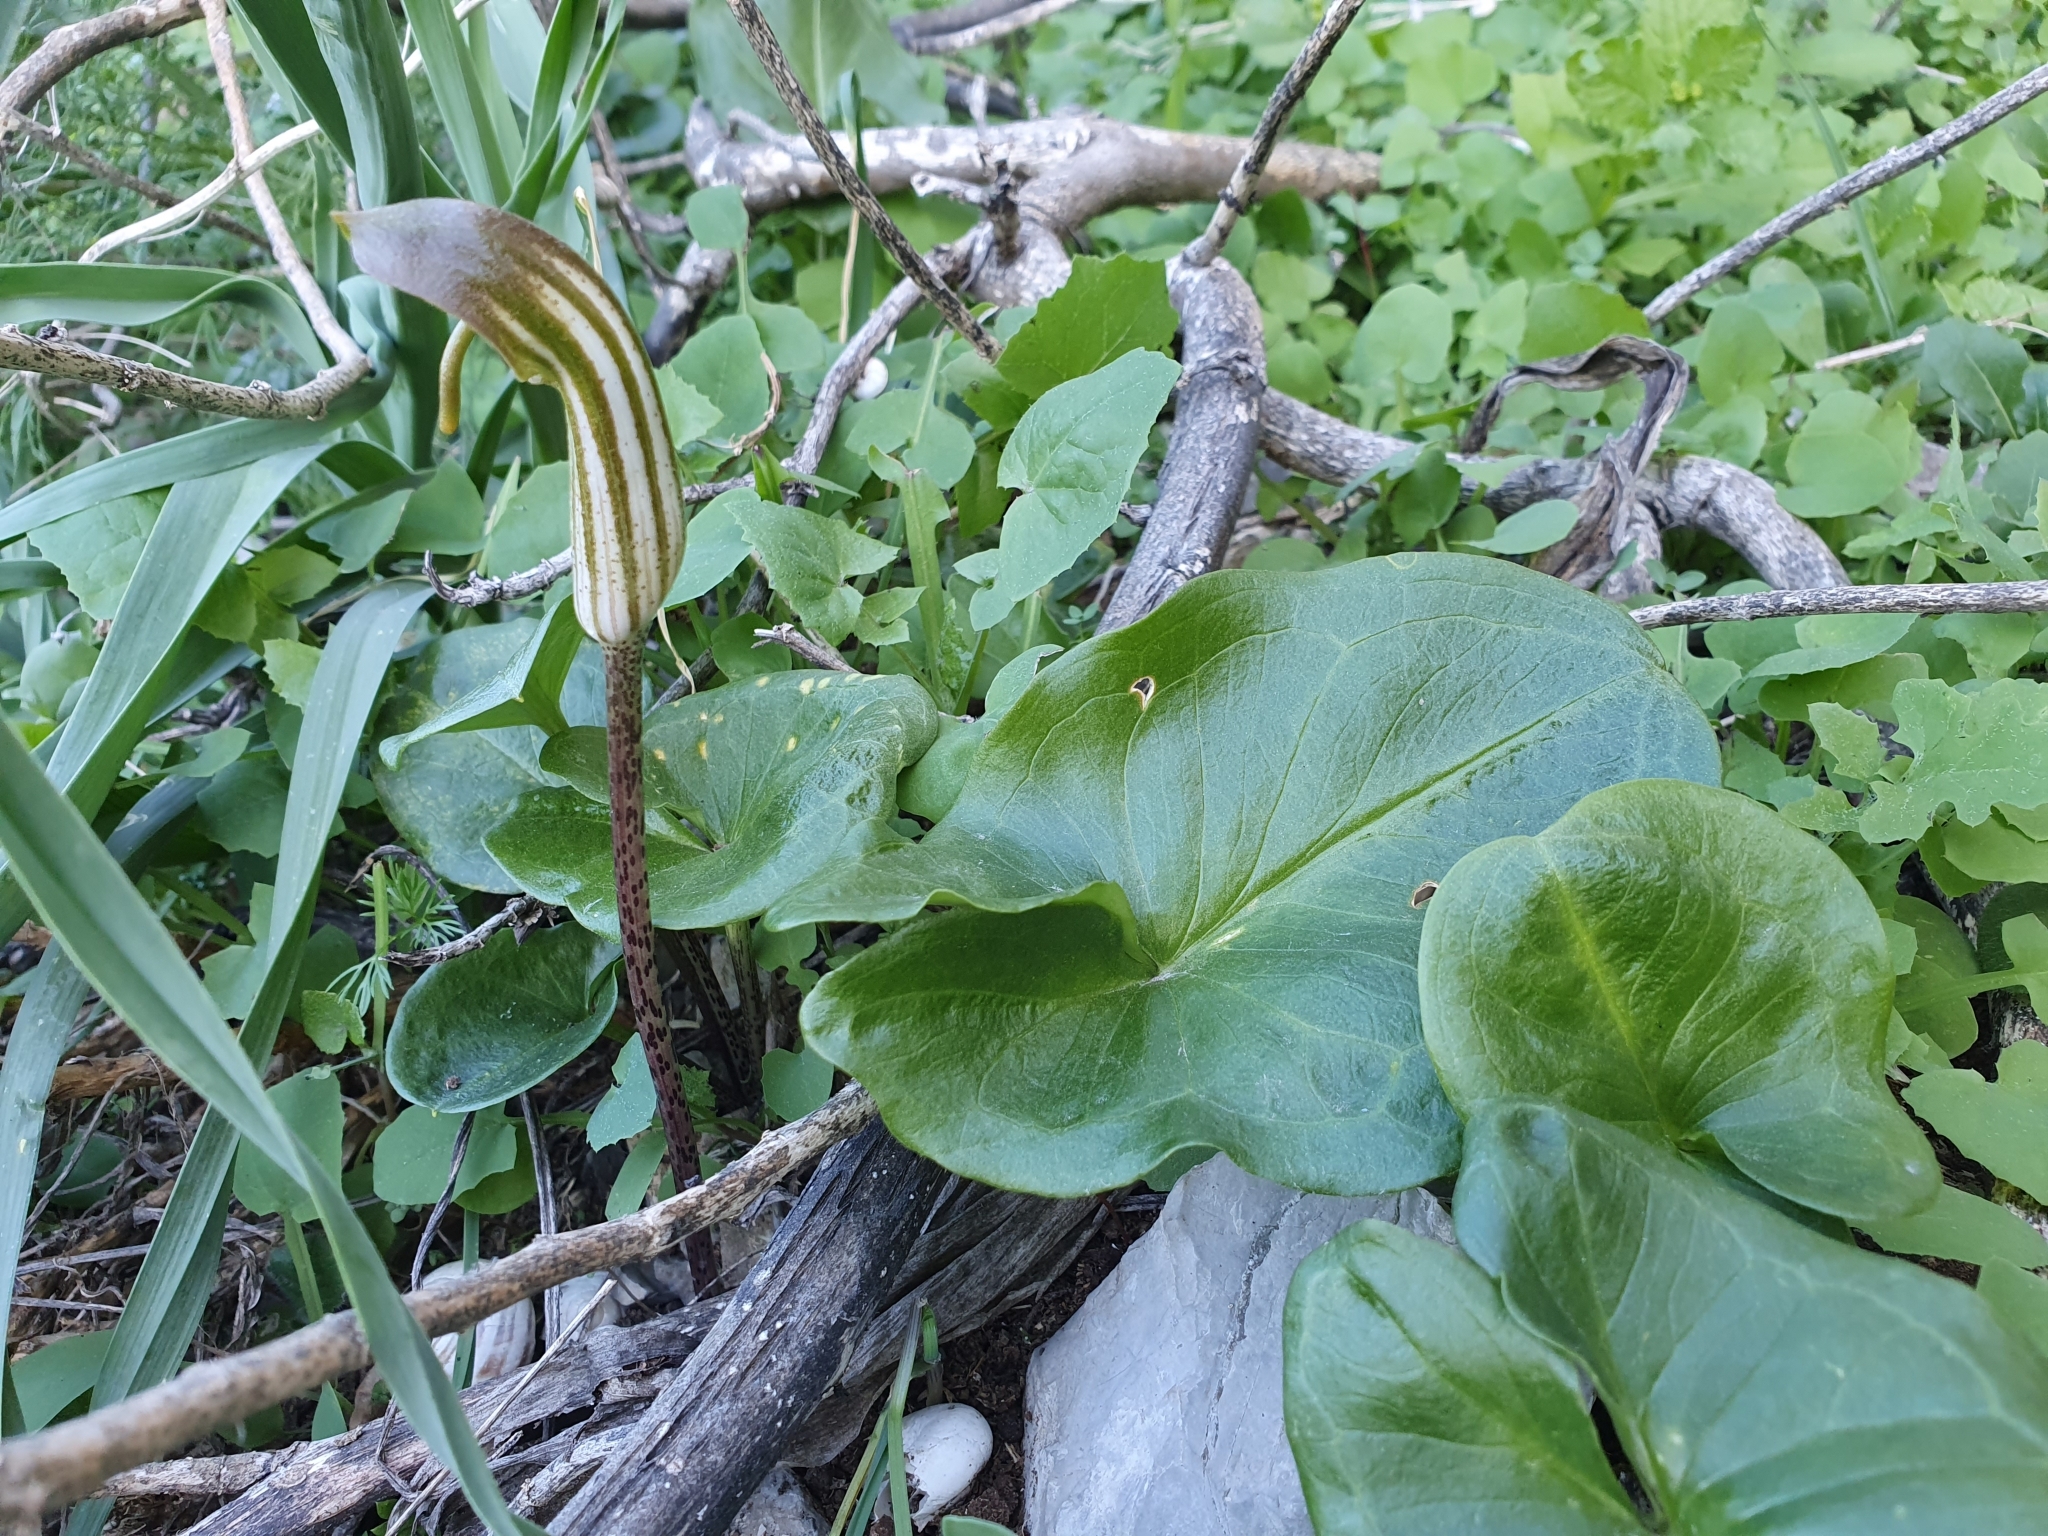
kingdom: Plantae
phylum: Tracheophyta
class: Liliopsida
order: Alismatales
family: Araceae
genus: Arisarum
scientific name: Arisarum vulgare
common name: Common arisarum
